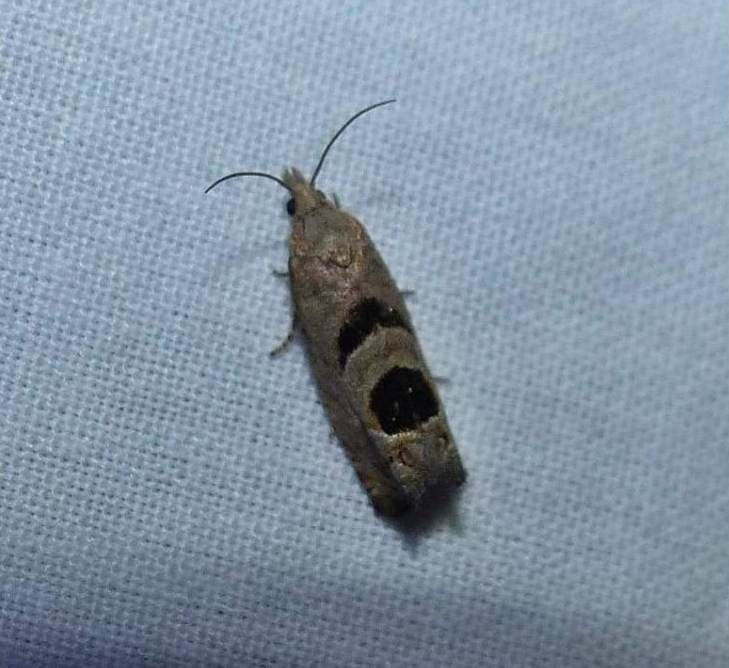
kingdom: Animalia
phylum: Arthropoda
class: Insecta
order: Lepidoptera
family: Tortricidae
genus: Eucosma
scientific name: Eucosma tomonana
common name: Aster-head eucosma moth
